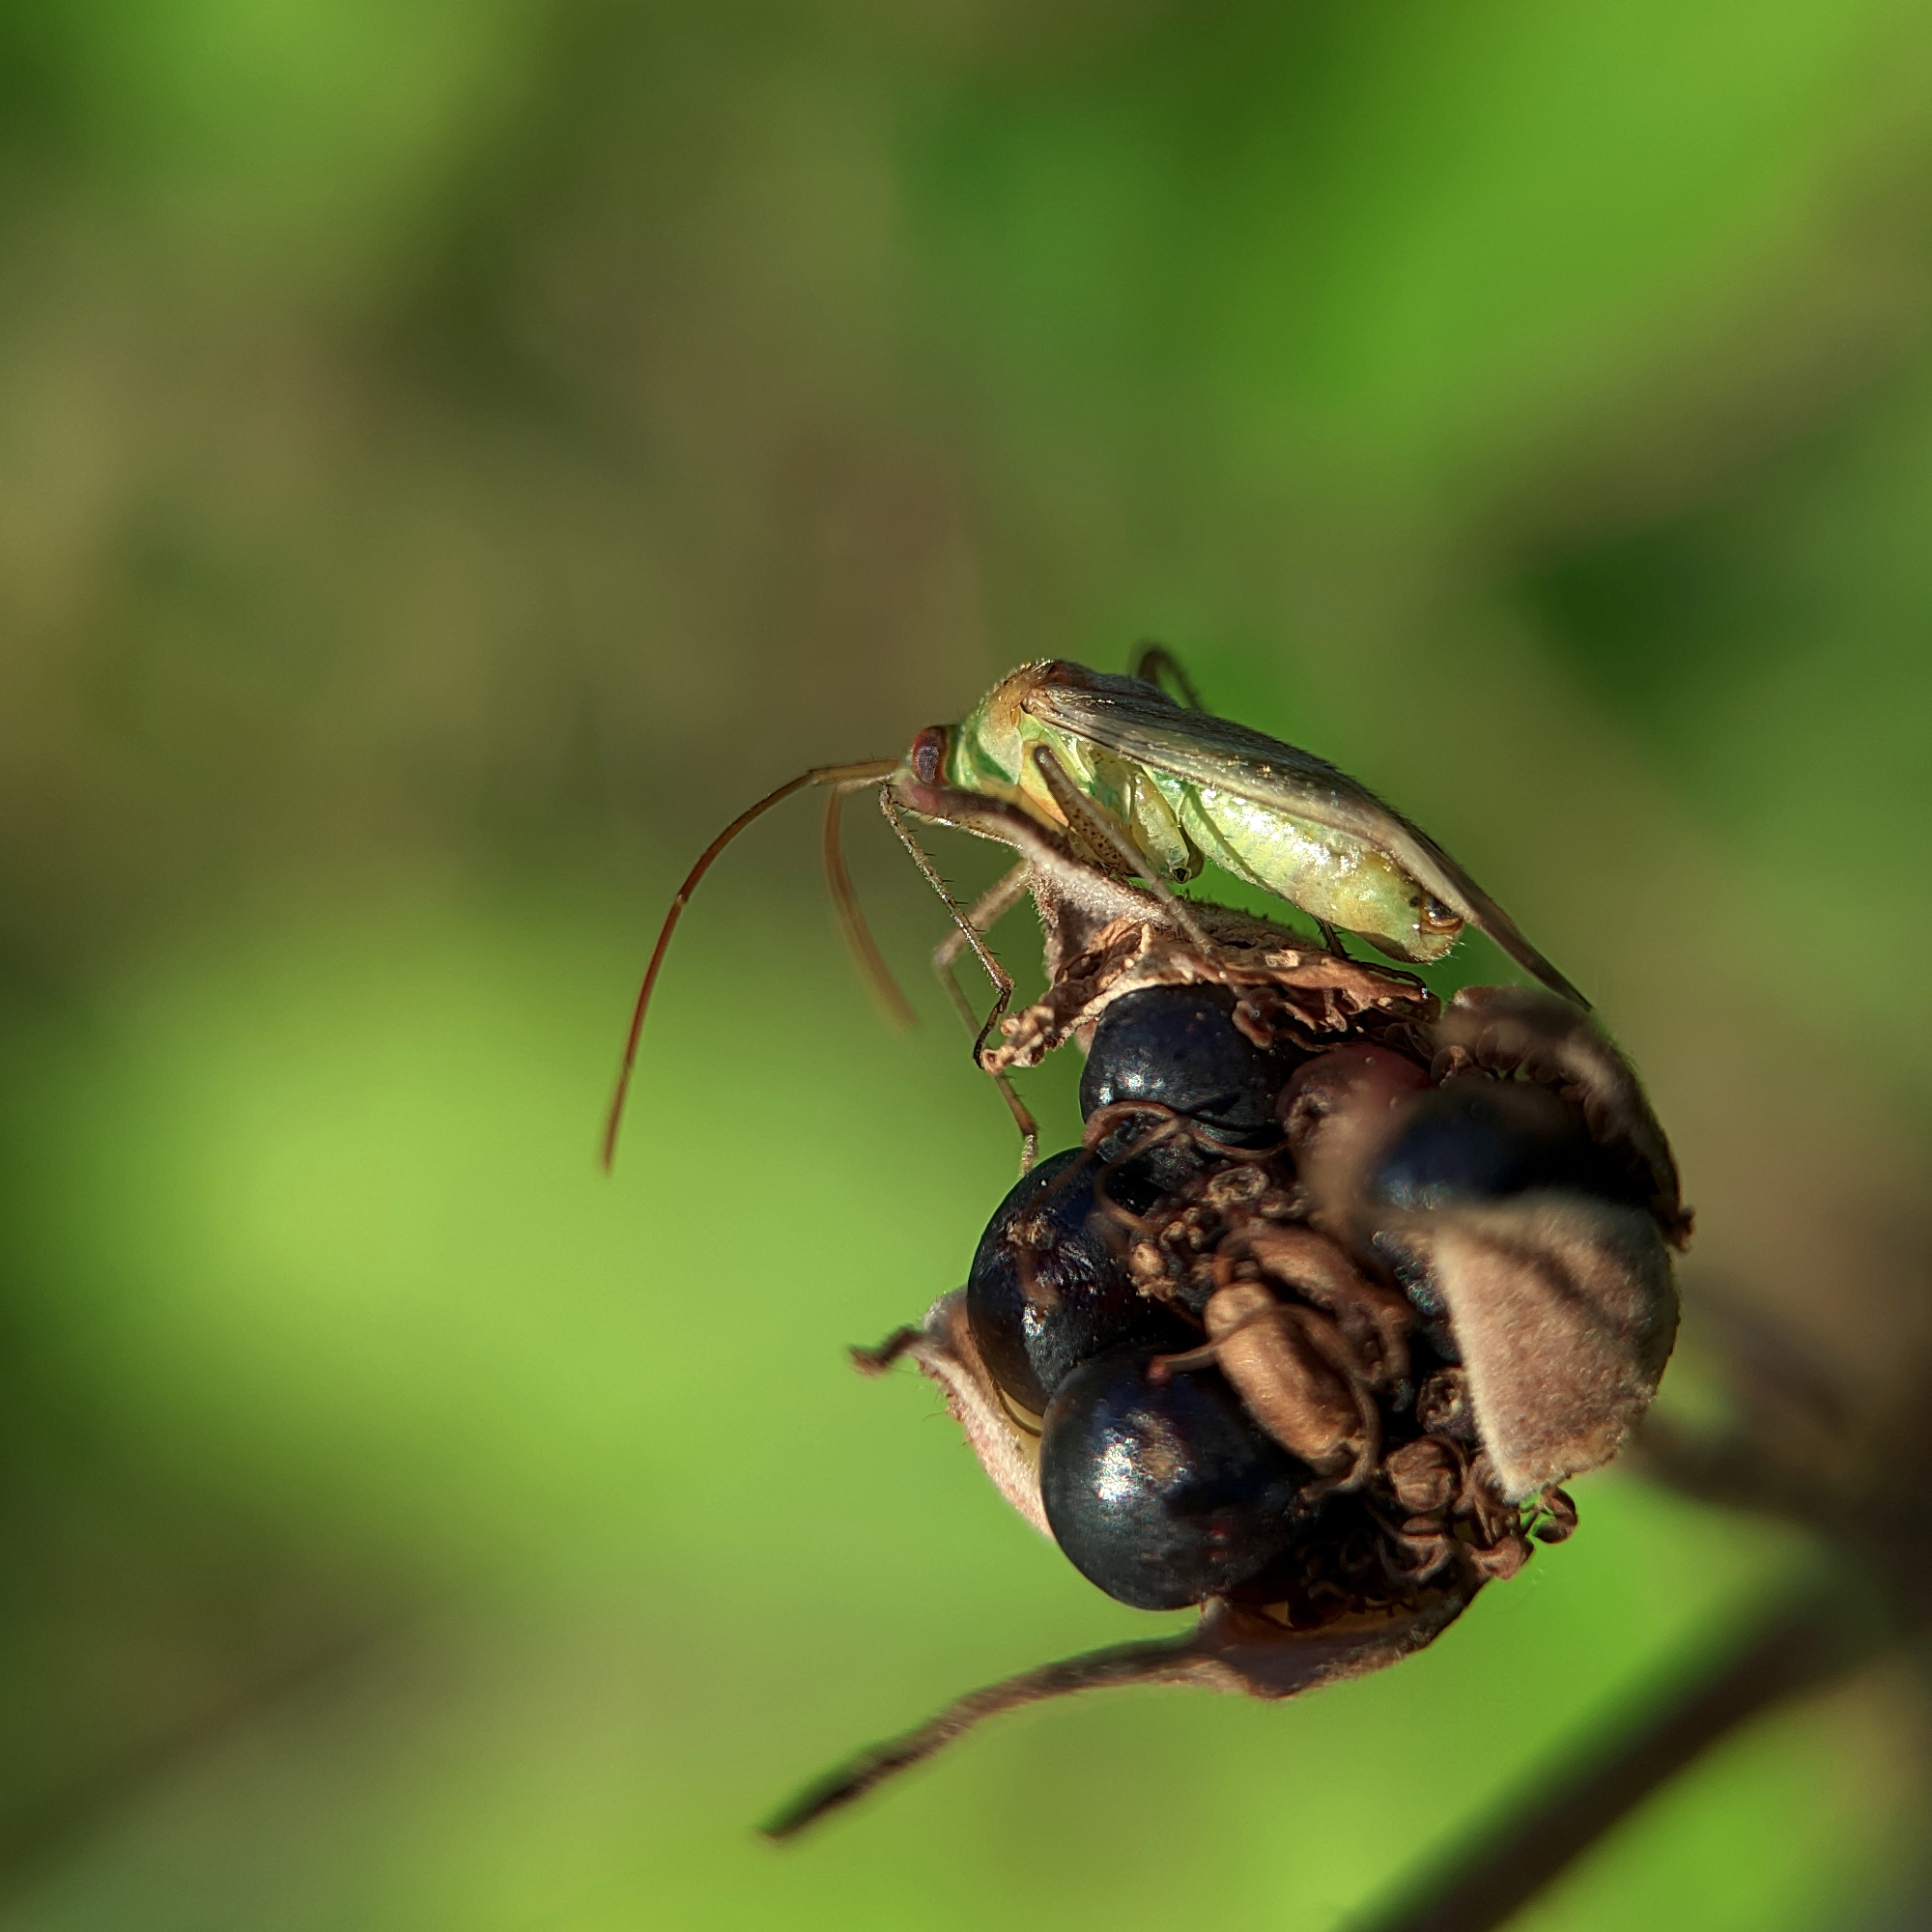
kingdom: Animalia
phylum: Arthropoda
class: Insecta
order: Hemiptera
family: Miridae
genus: Adelphocoris
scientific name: Adelphocoris lineolatus
